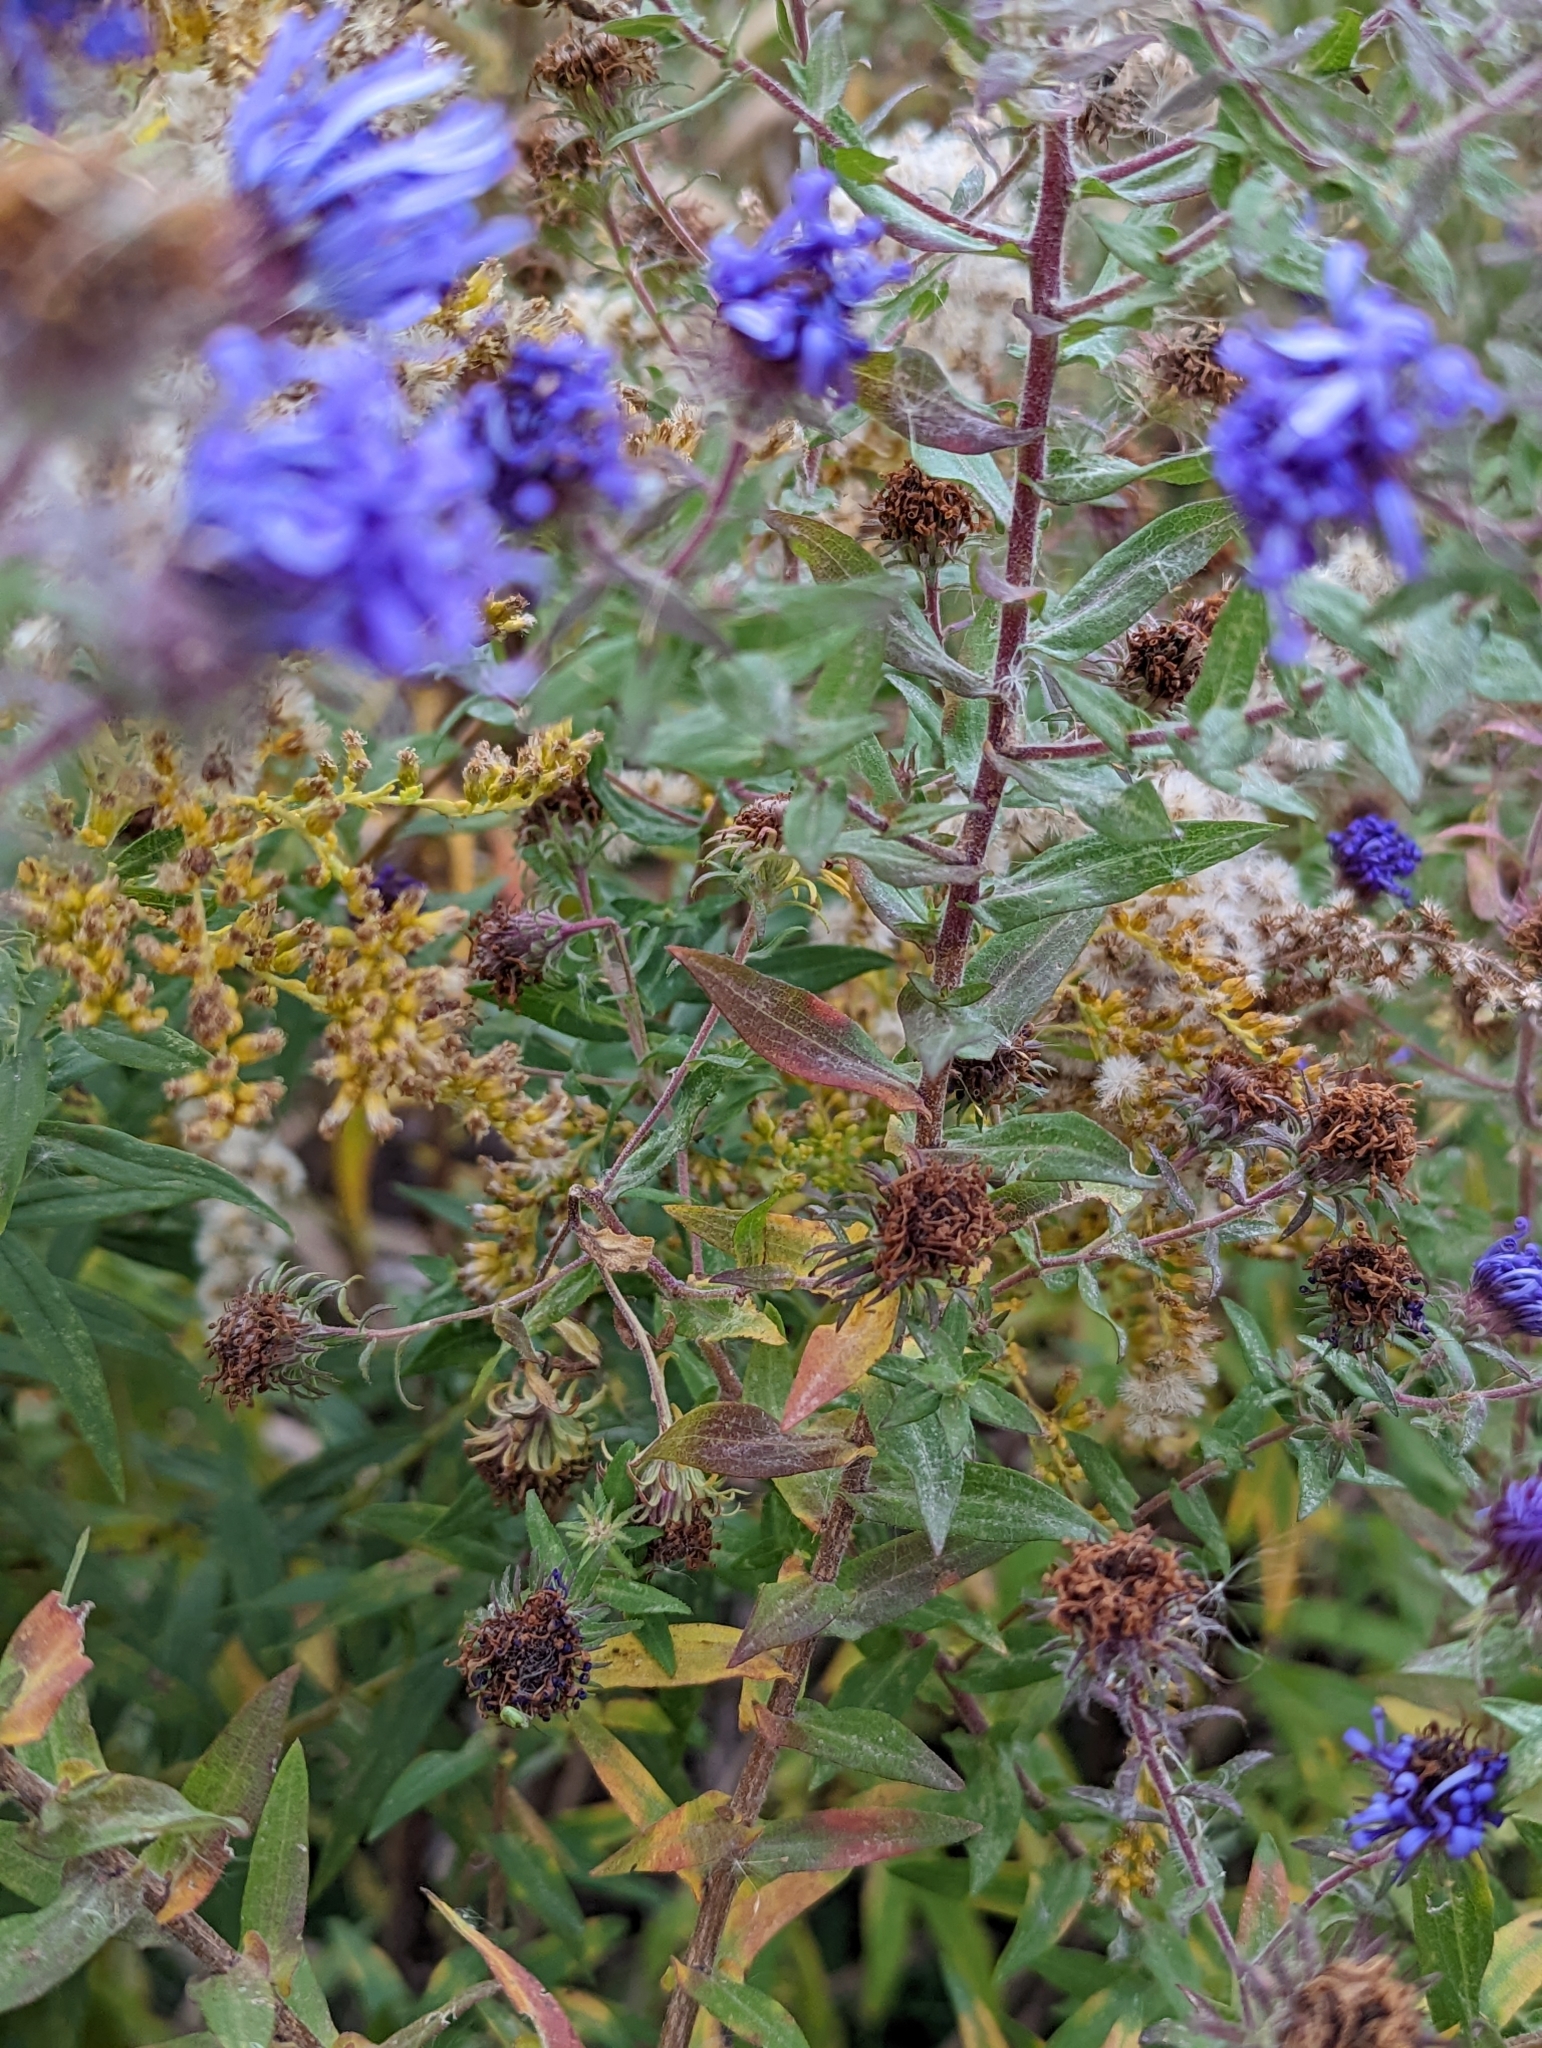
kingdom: Plantae
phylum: Tracheophyta
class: Magnoliopsida
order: Asterales
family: Asteraceae
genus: Symphyotrichum
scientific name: Symphyotrichum novae-angliae
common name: Michaelmas daisy
